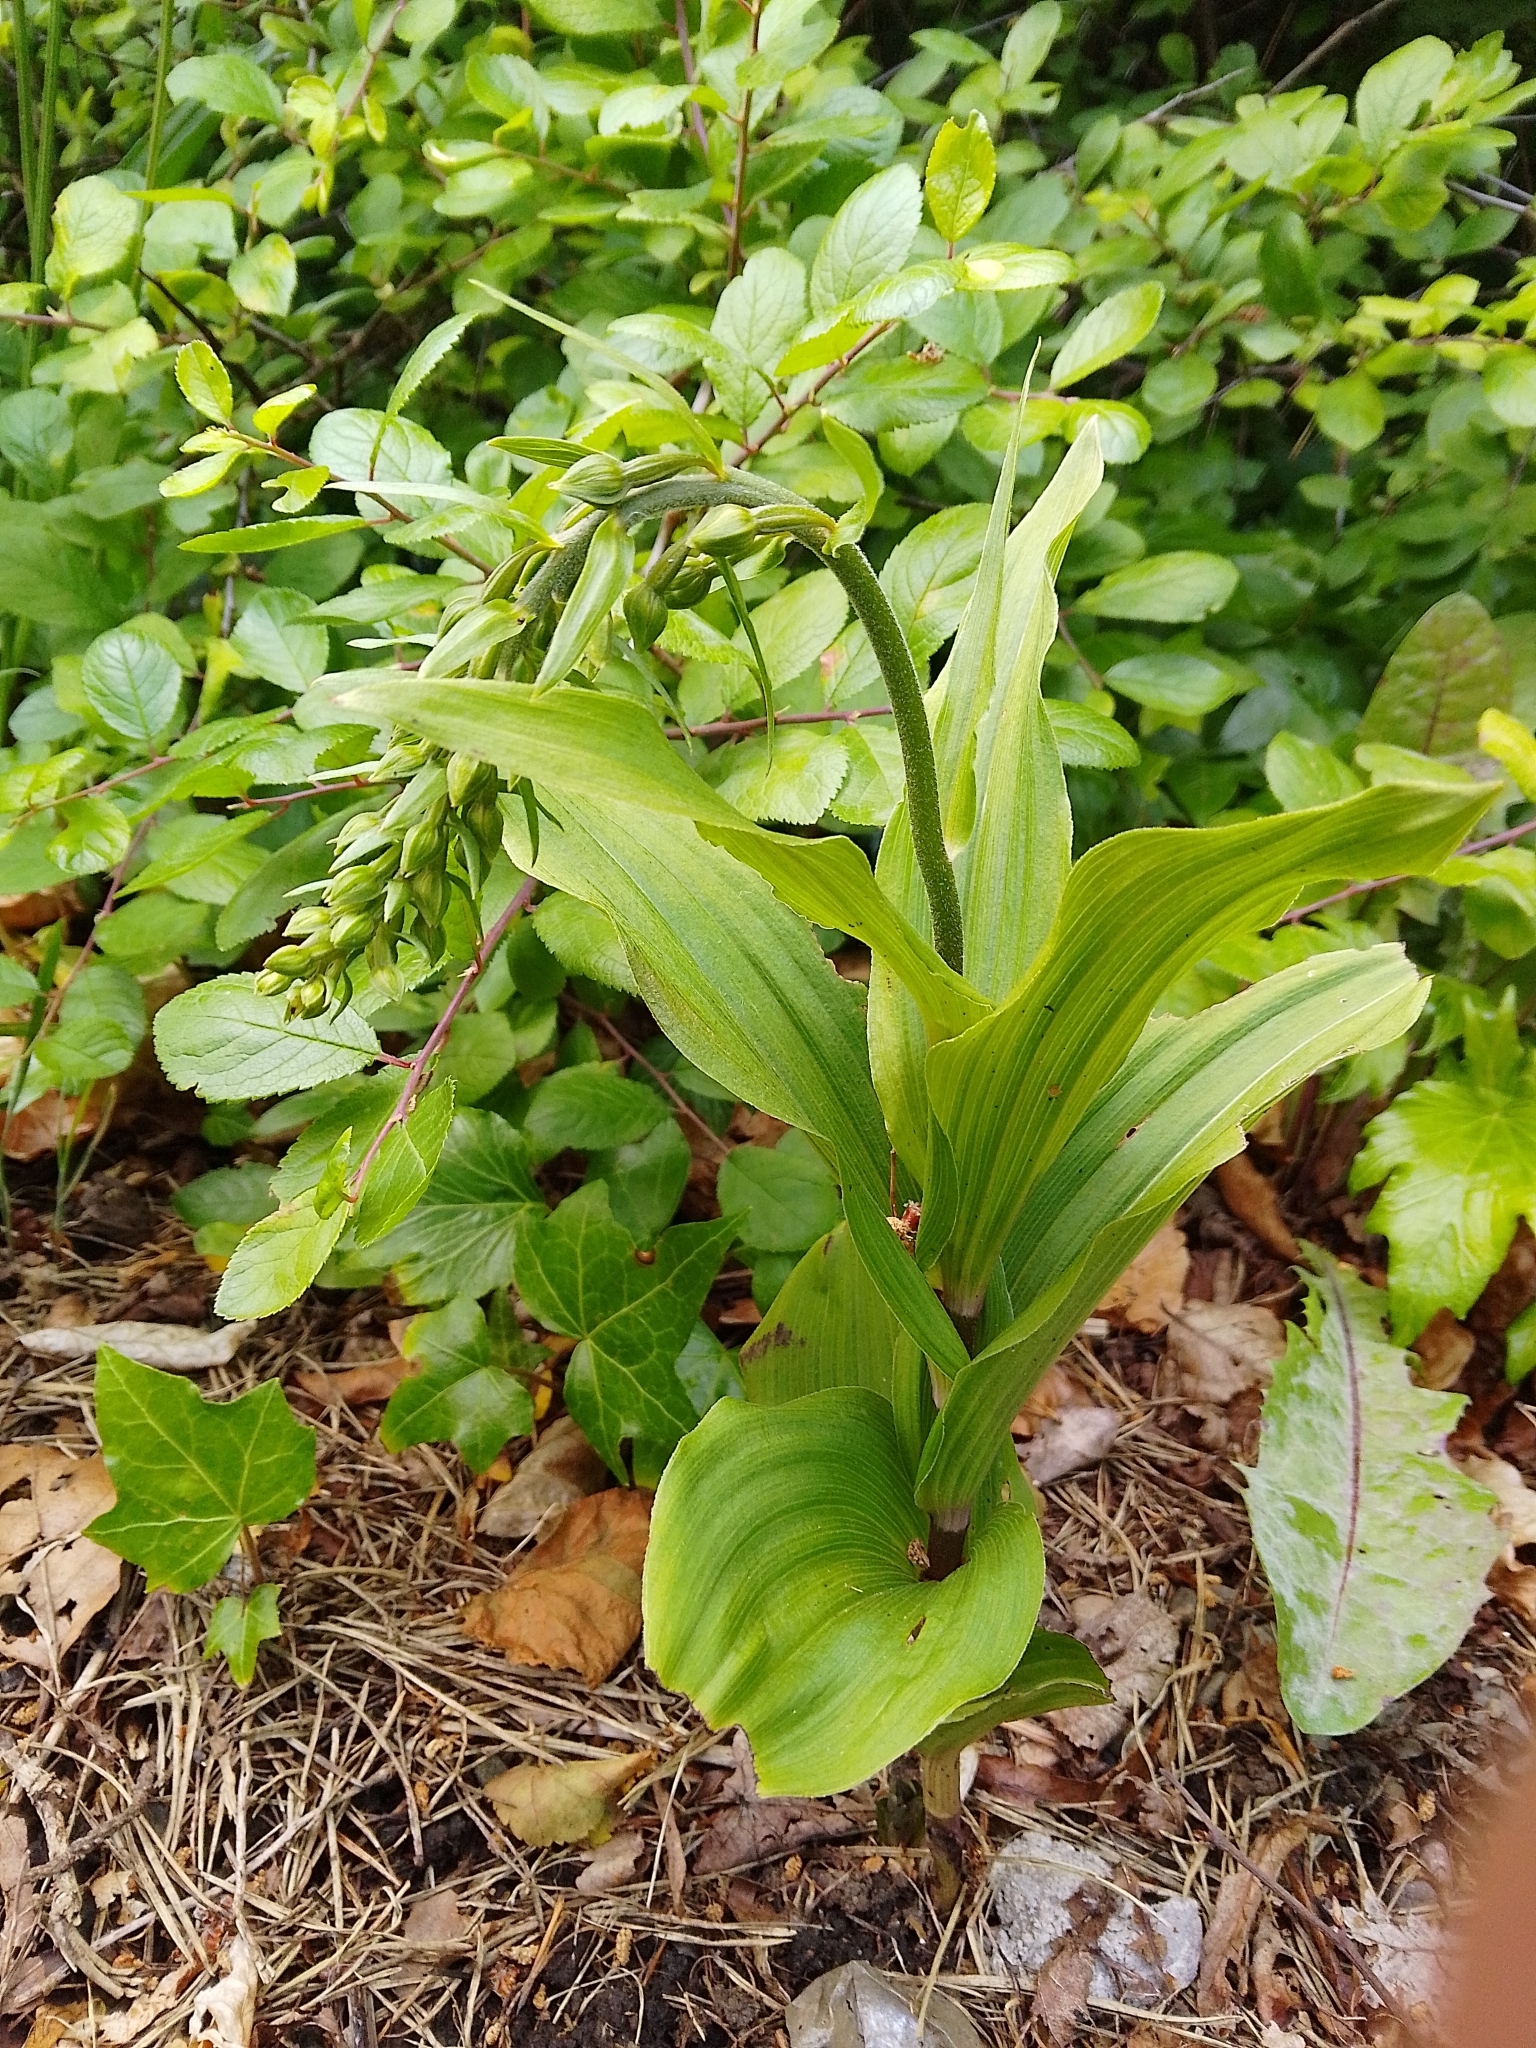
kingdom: Plantae
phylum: Tracheophyta
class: Liliopsida
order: Asparagales
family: Orchidaceae
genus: Epipactis
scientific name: Epipactis helleborine
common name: Broad-leaved helleborine
